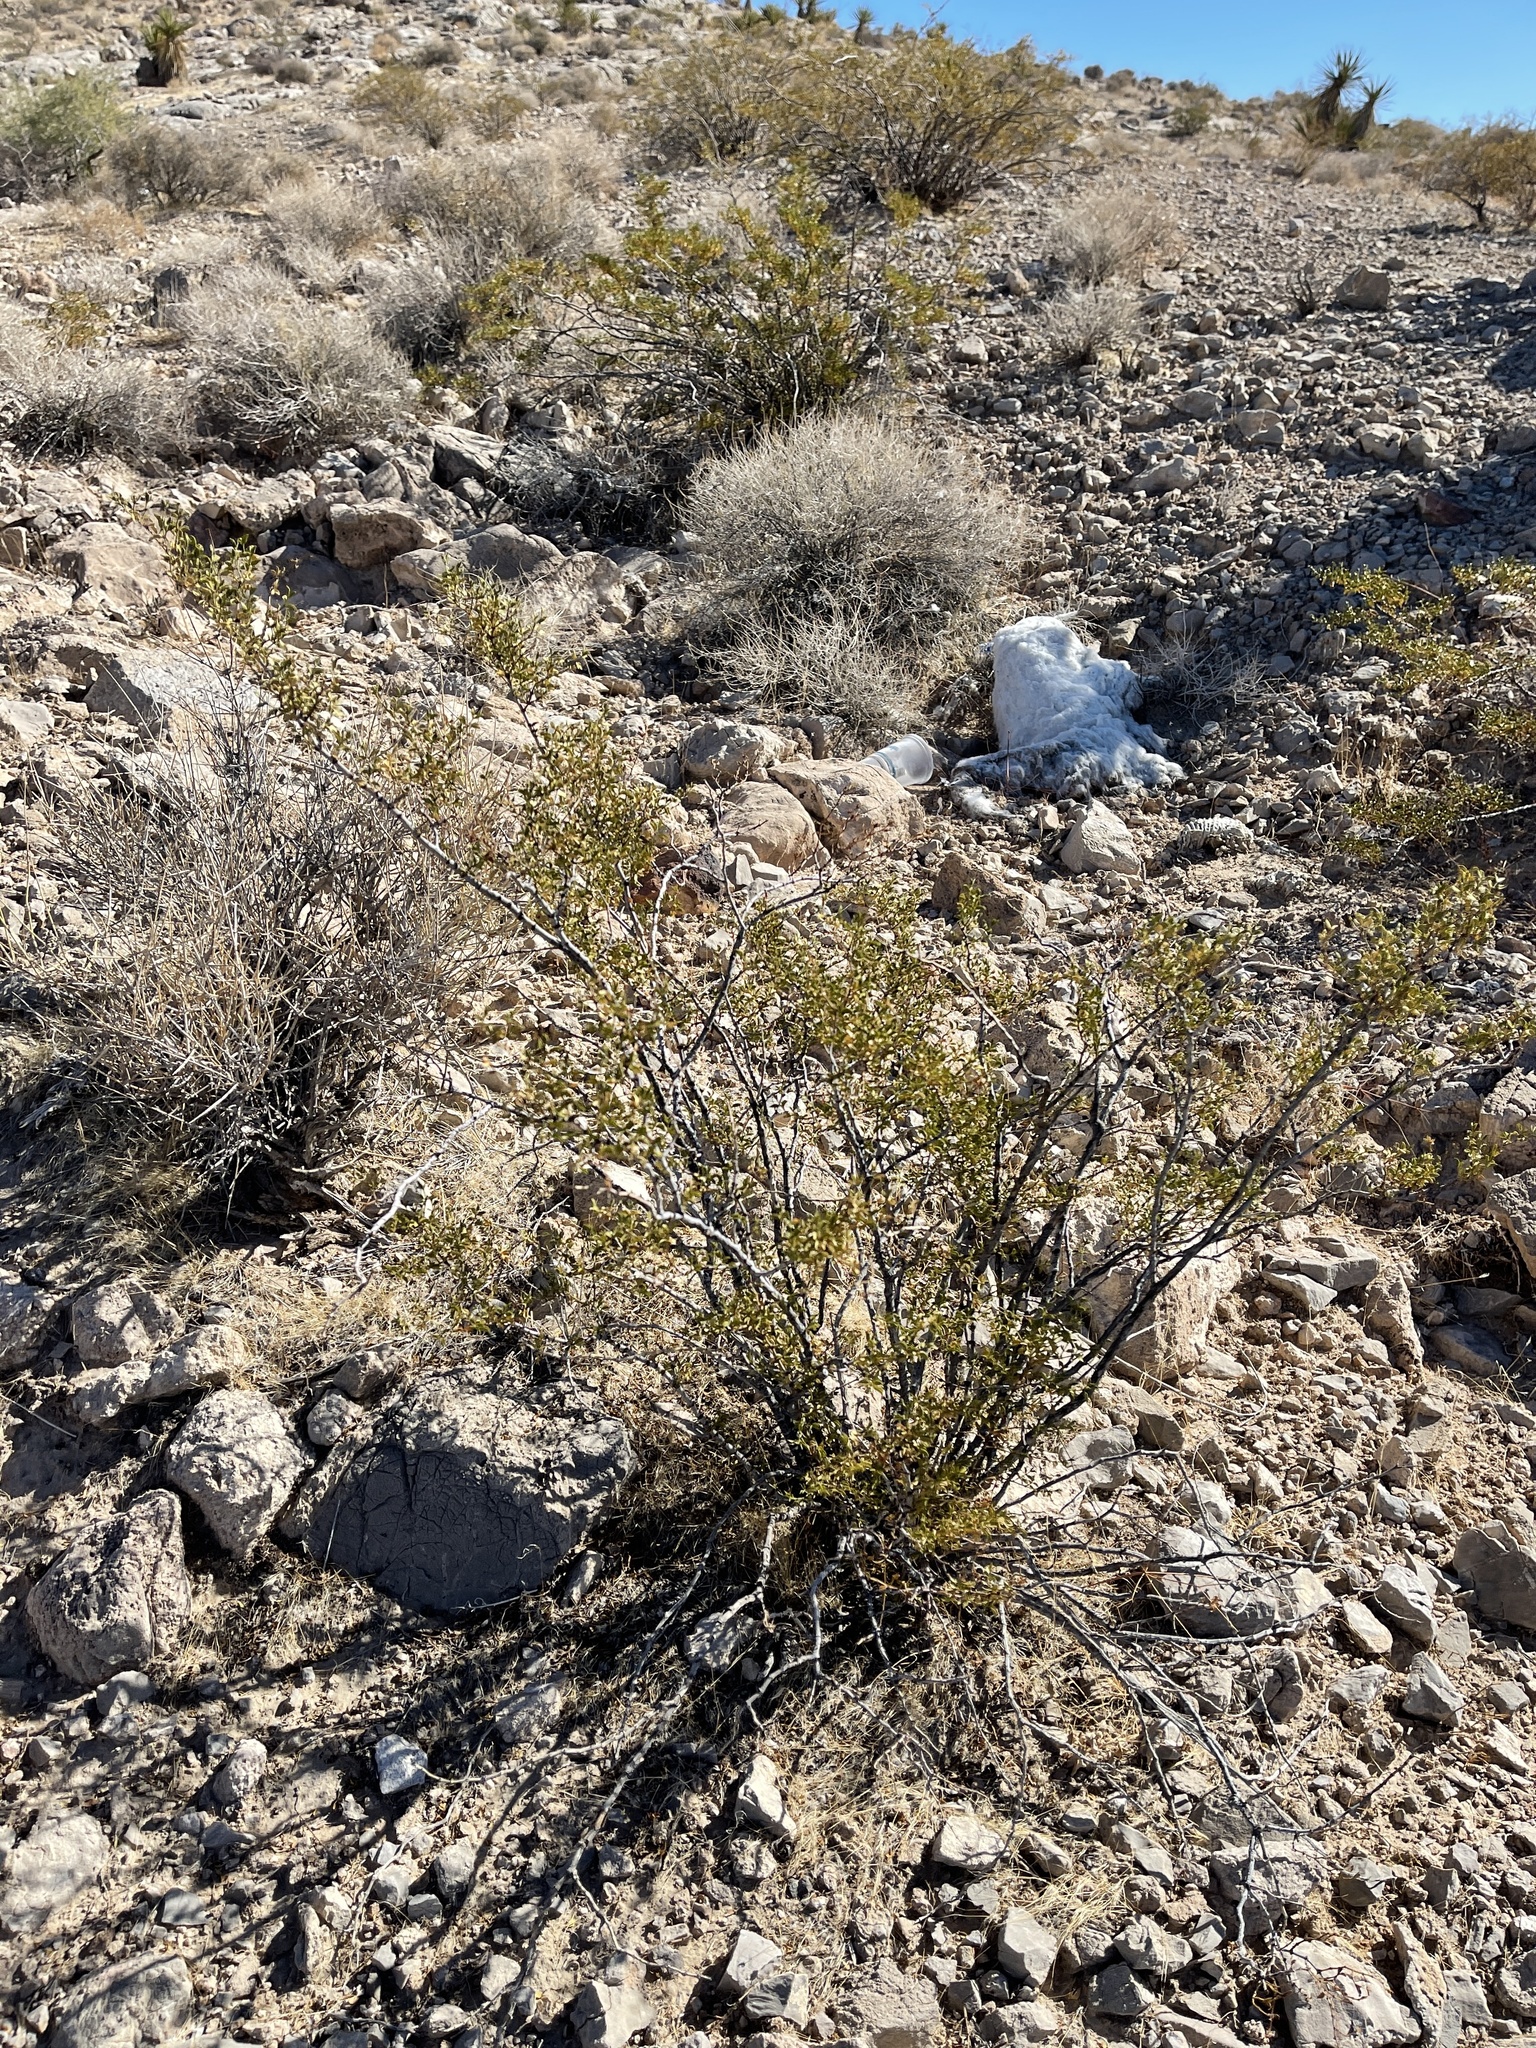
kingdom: Plantae
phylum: Tracheophyta
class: Magnoliopsida
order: Zygophyllales
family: Zygophyllaceae
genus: Larrea
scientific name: Larrea tridentata
